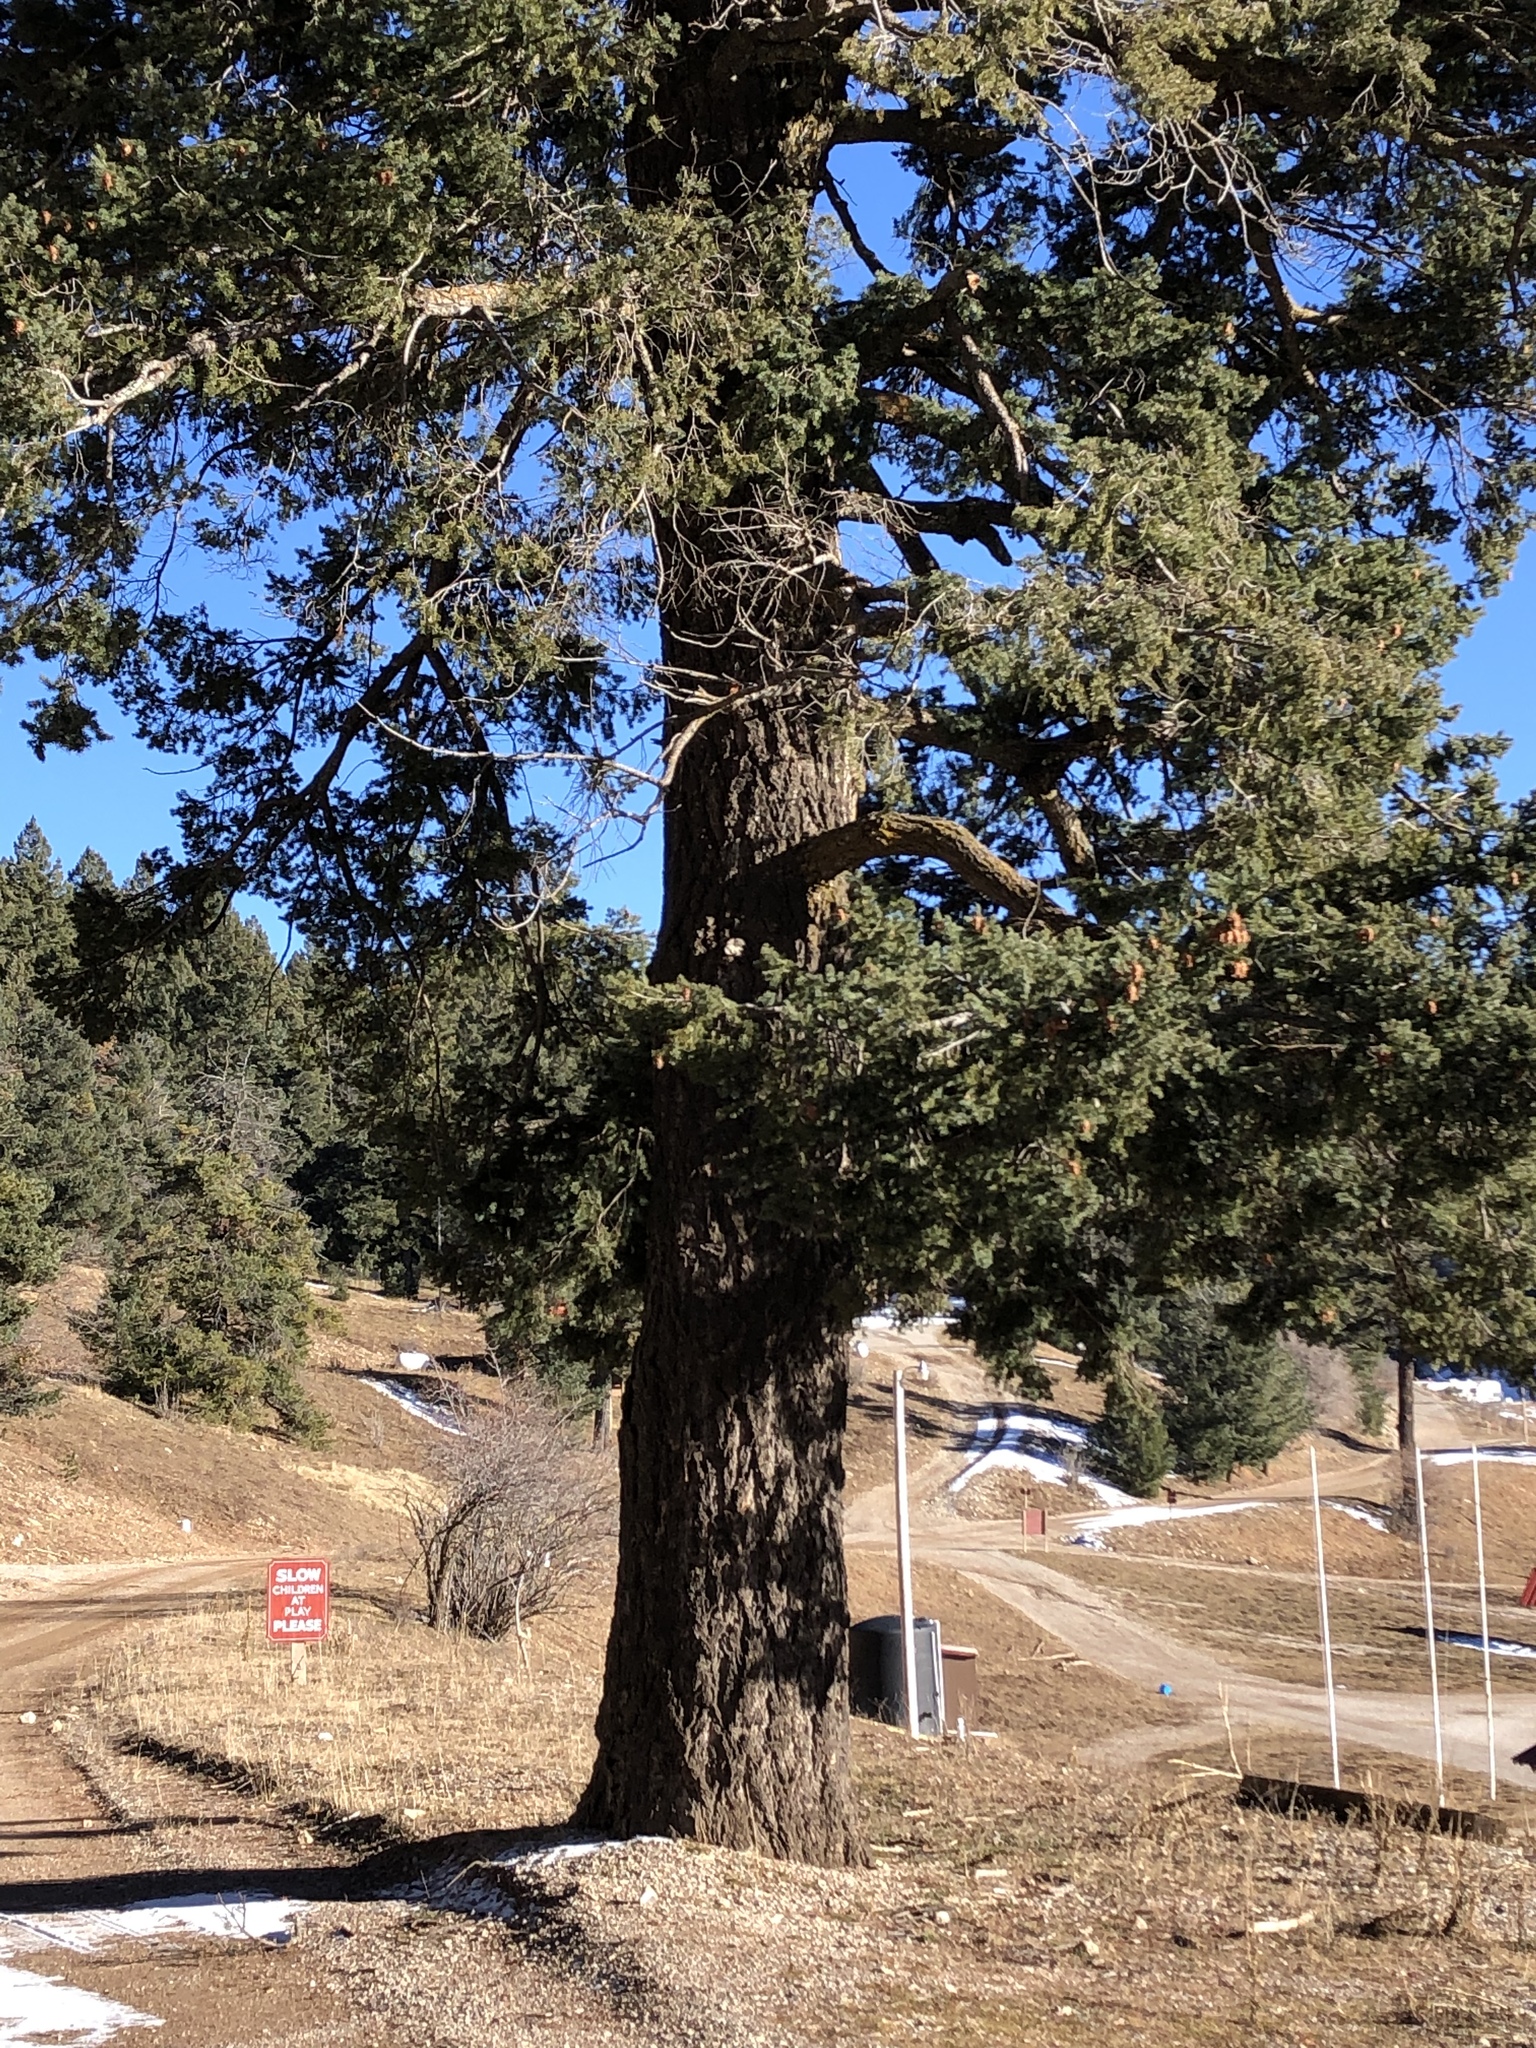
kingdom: Plantae
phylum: Tracheophyta
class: Pinopsida
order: Pinales
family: Pinaceae
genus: Pseudotsuga
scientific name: Pseudotsuga menziesii
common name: Douglas fir
